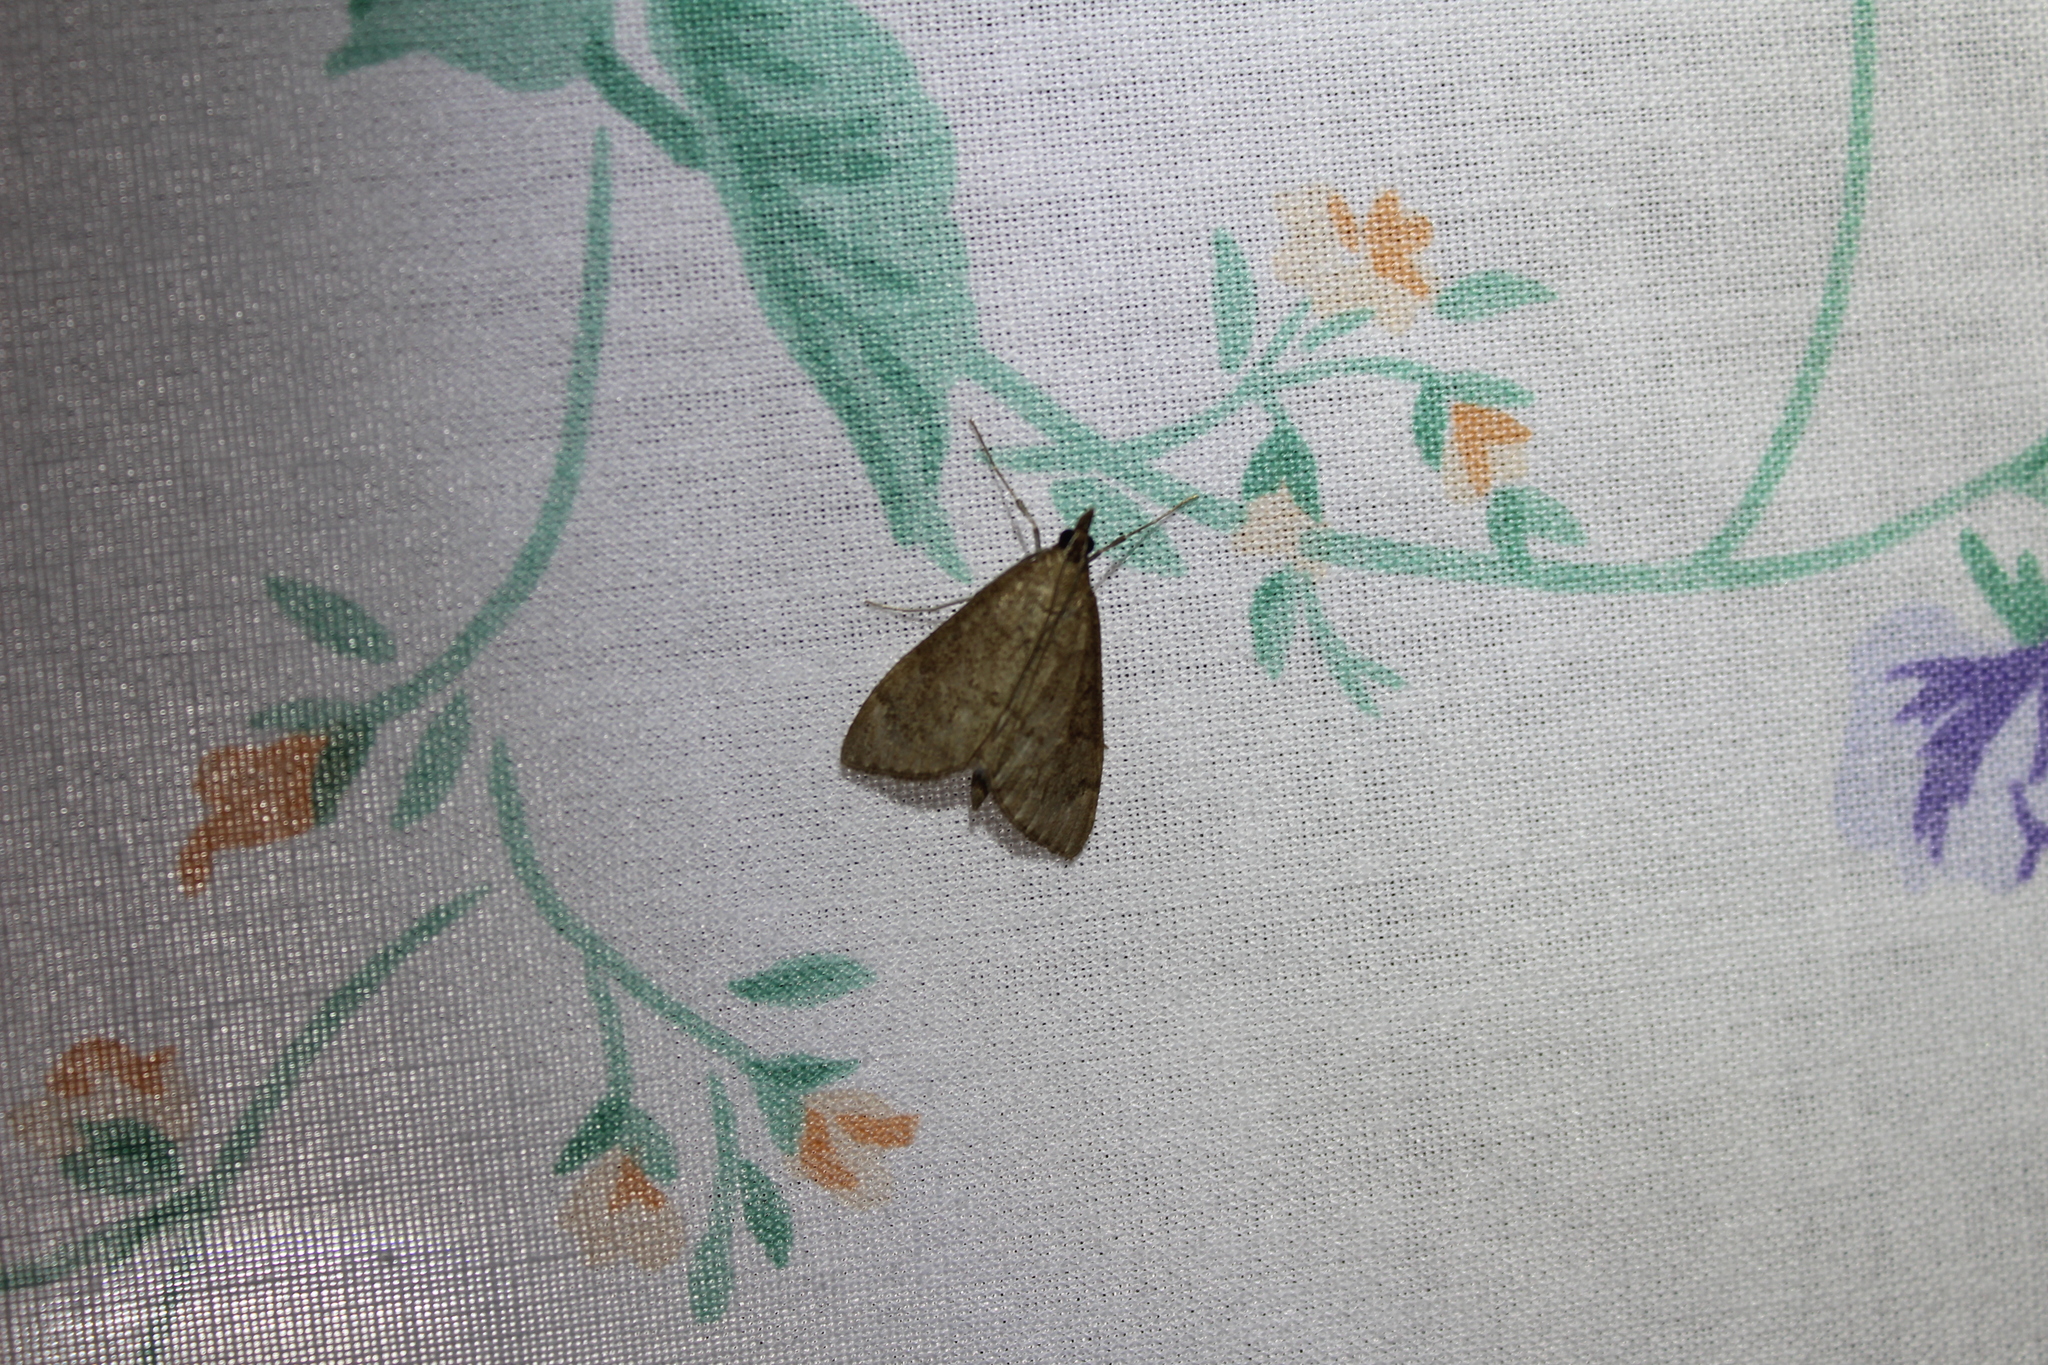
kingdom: Animalia
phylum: Arthropoda
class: Insecta
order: Lepidoptera
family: Crambidae
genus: Saucrobotys
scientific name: Saucrobotys futilalis
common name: Dogbane saucrobotys moth
